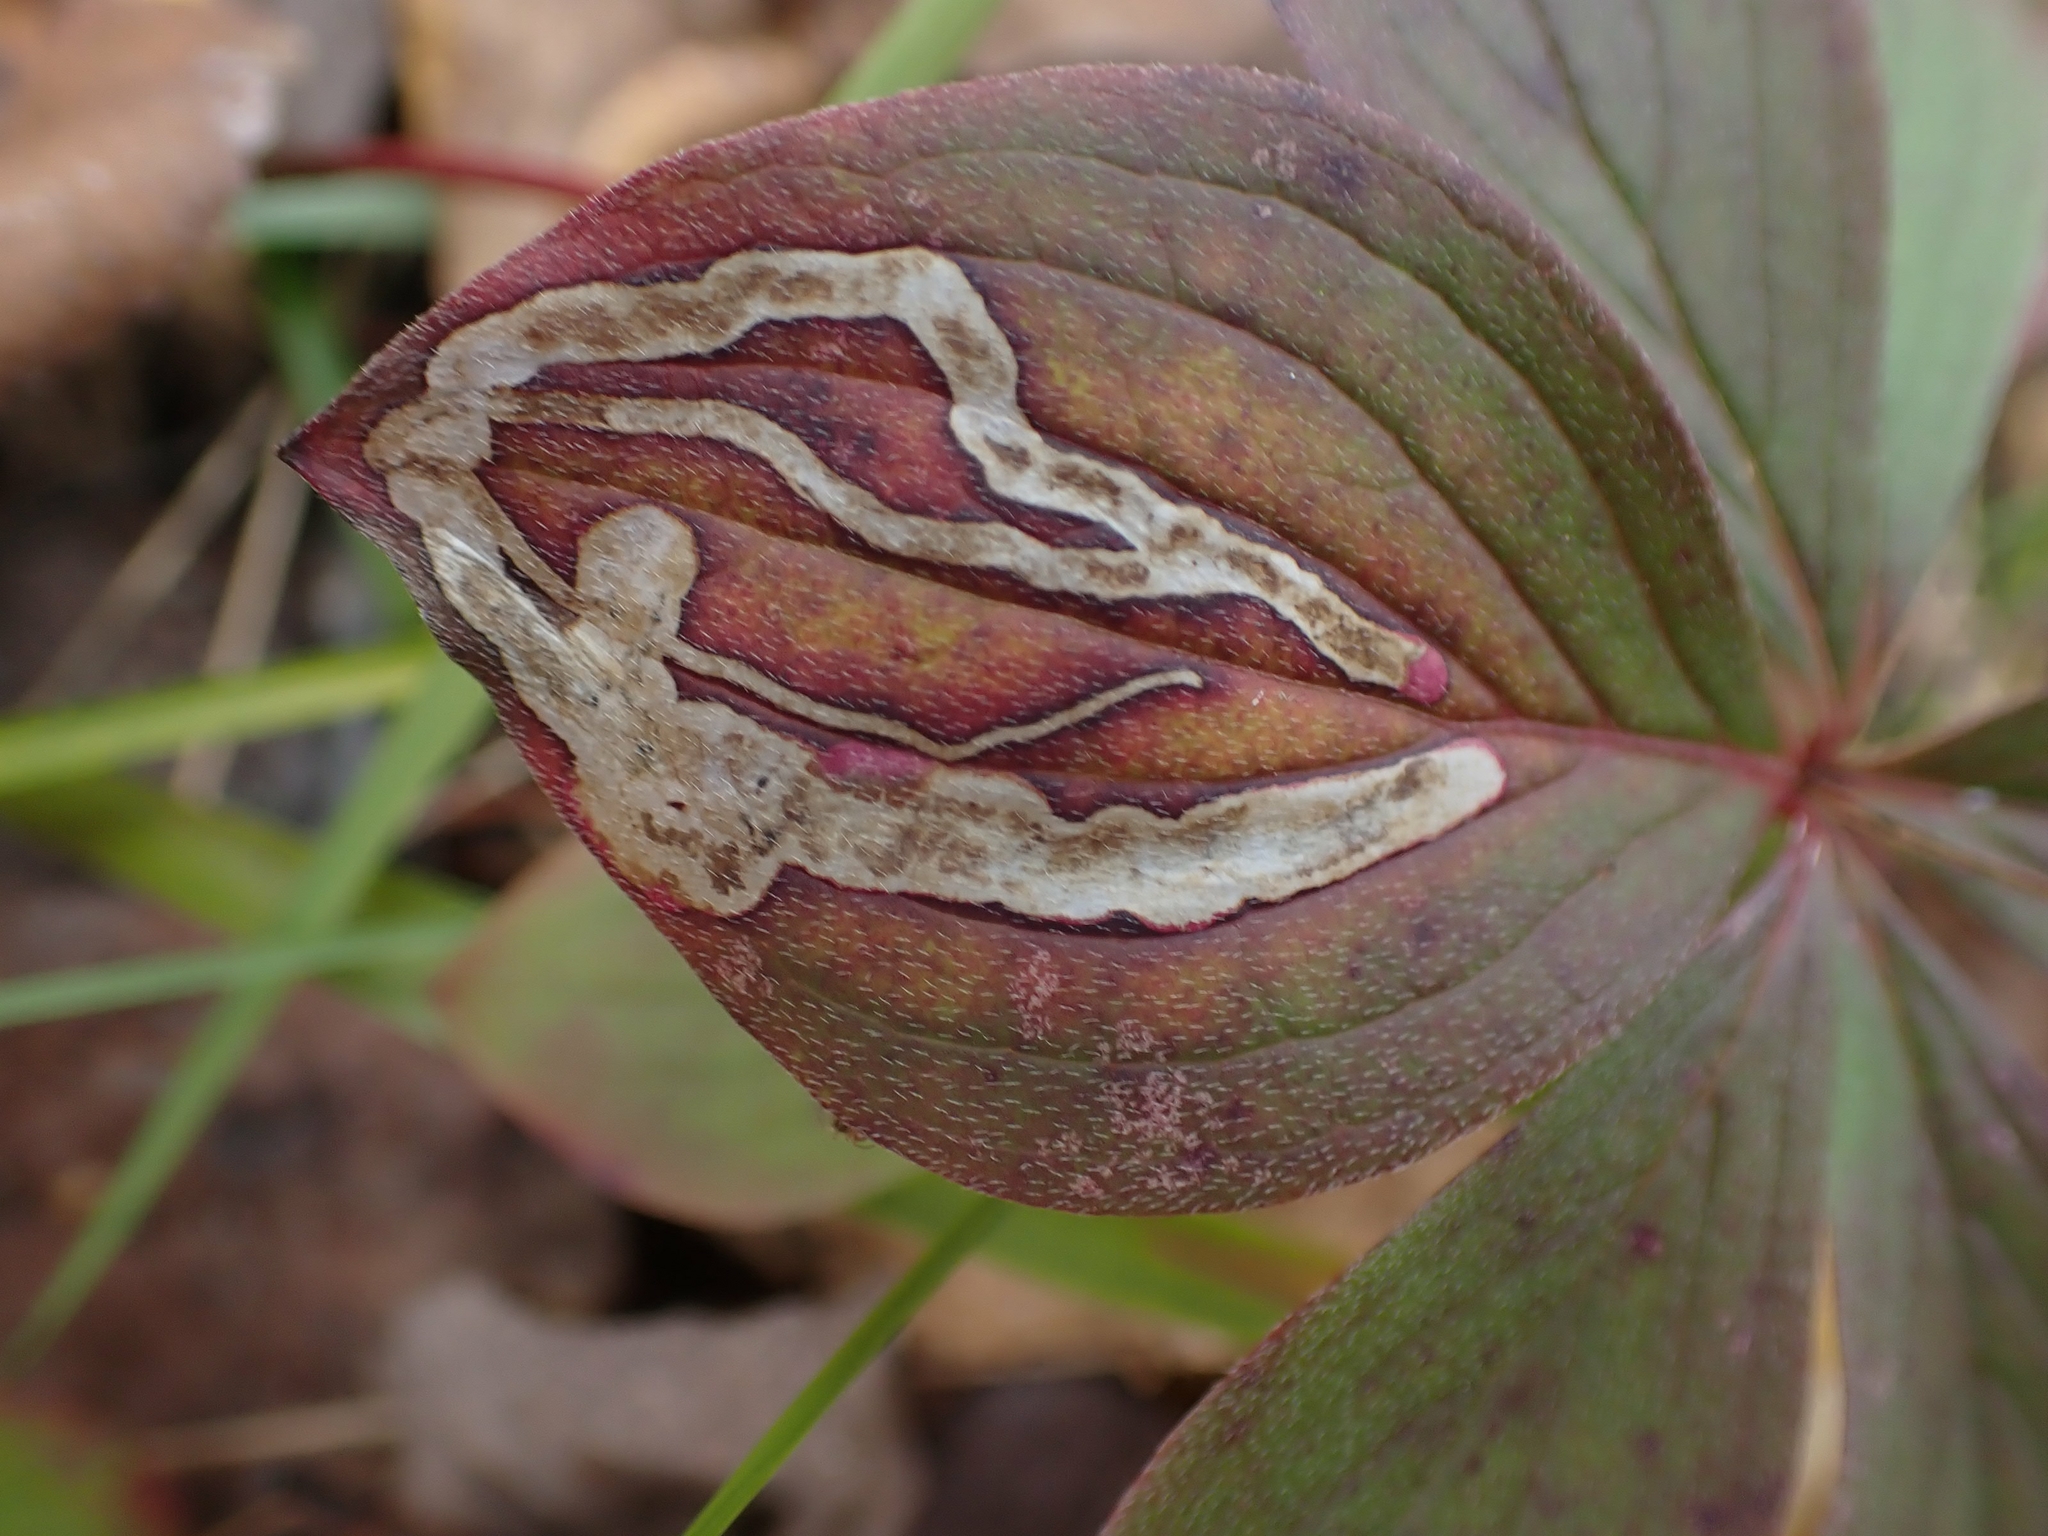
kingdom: Animalia
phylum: Arthropoda
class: Insecta
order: Diptera
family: Agromyzidae
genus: Phytomyza
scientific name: Phytomyza agromyzina
